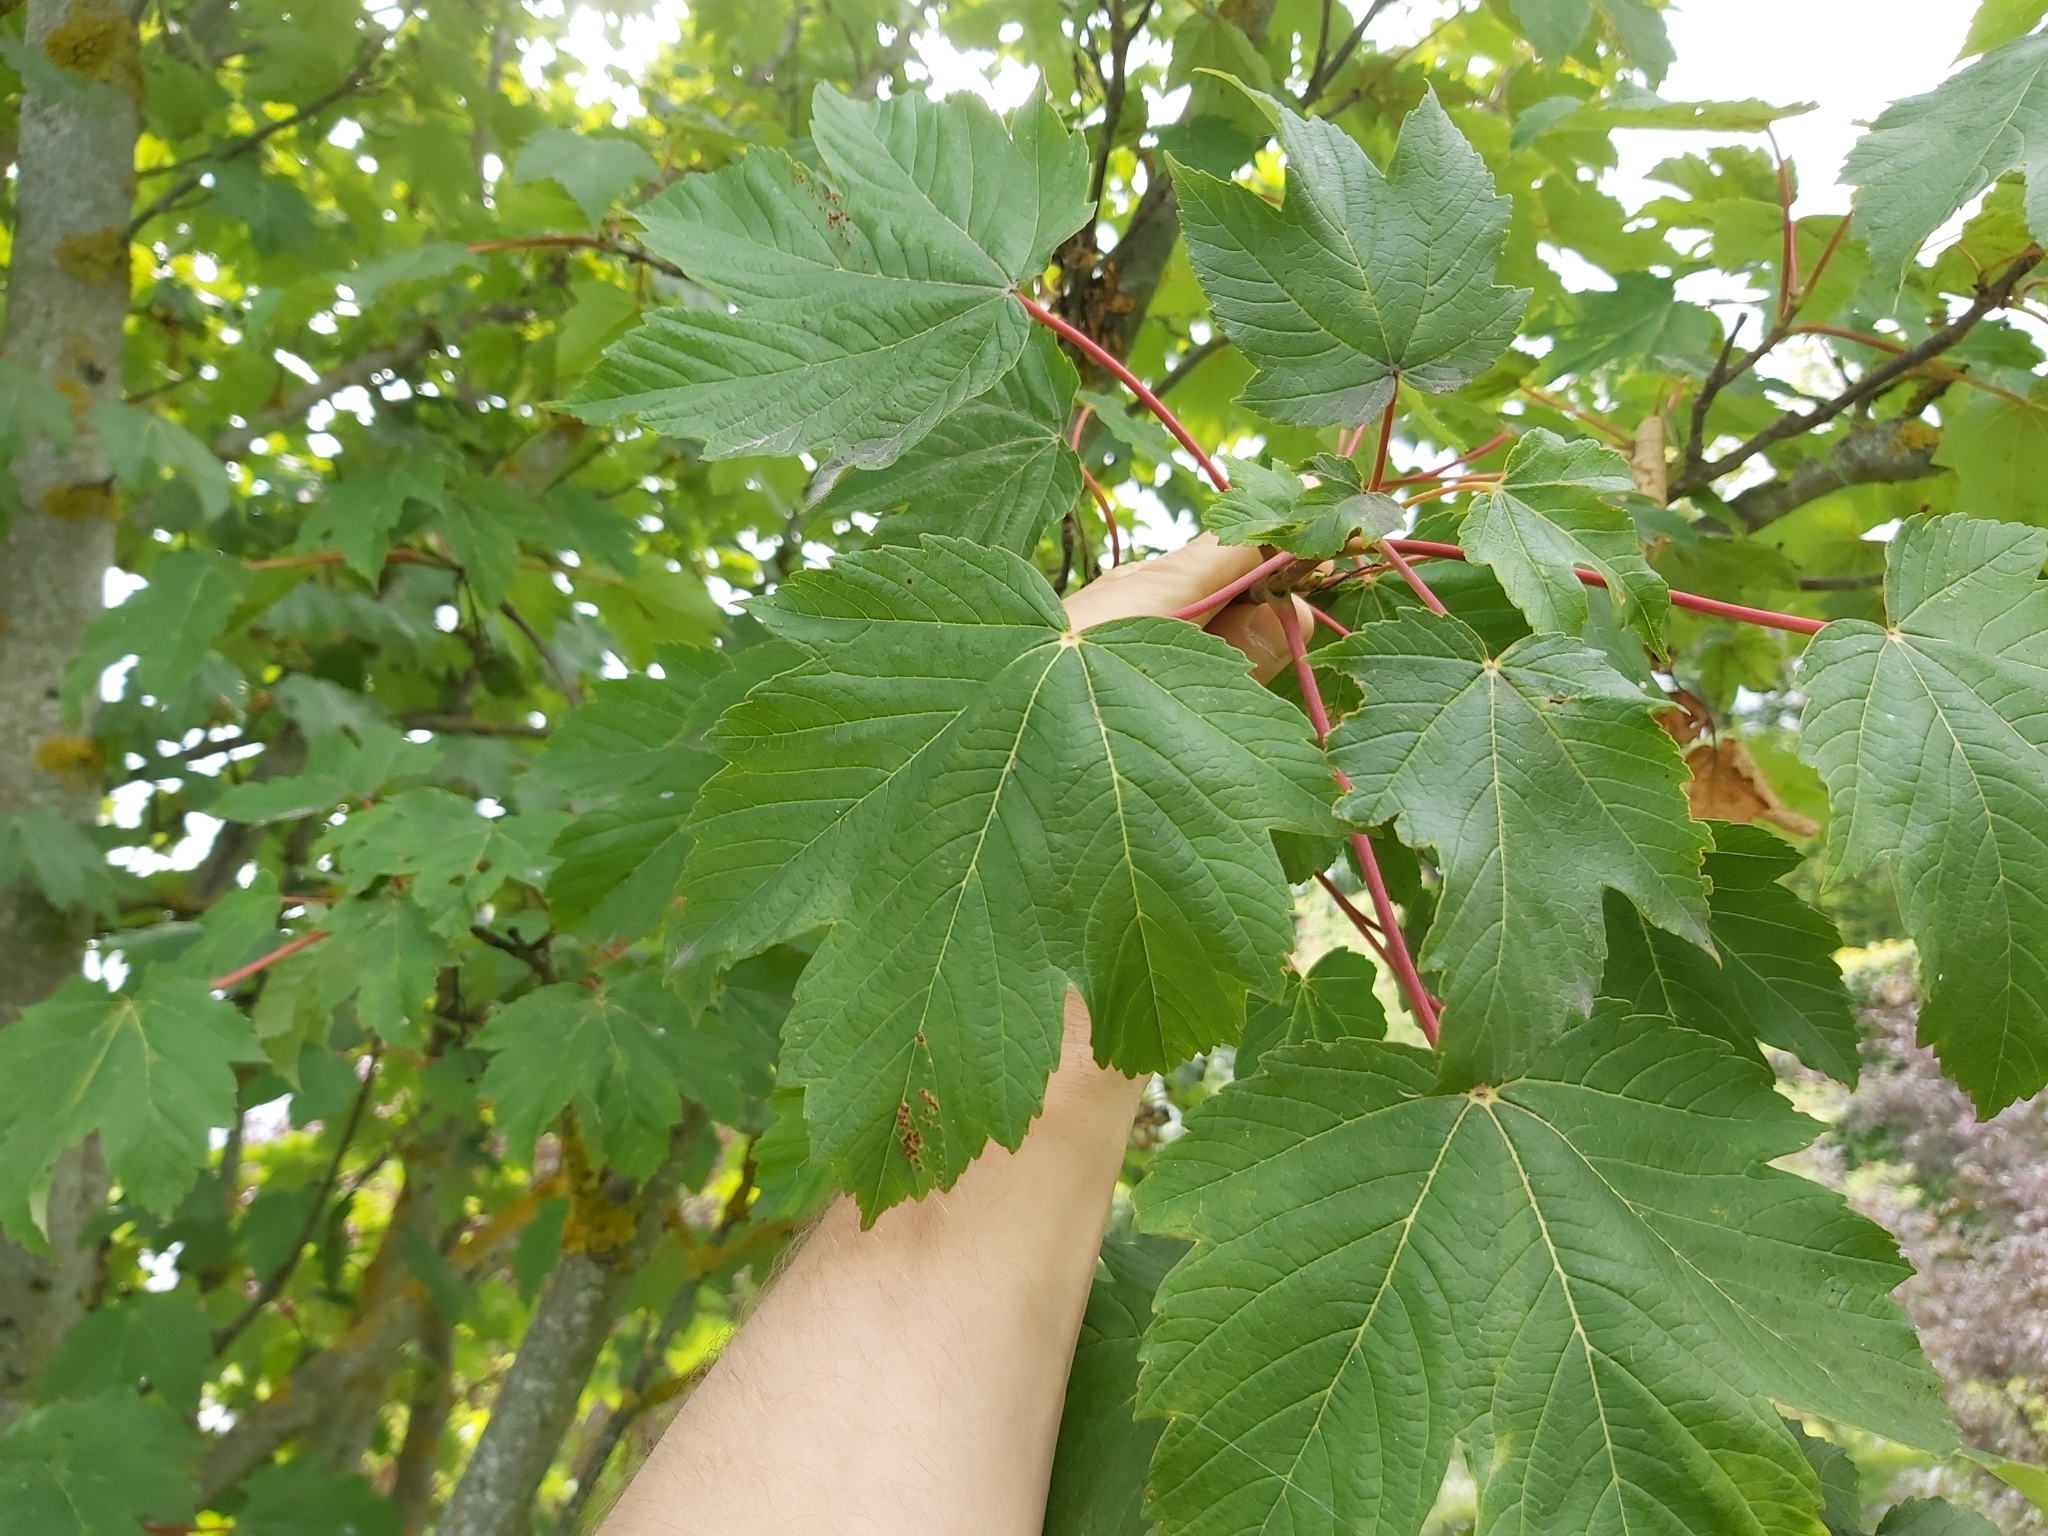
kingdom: Animalia
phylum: Arthropoda
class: Arachnida
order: Trombidiformes
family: Eriophyidae
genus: Aceria
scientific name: Aceria cephaloneus
